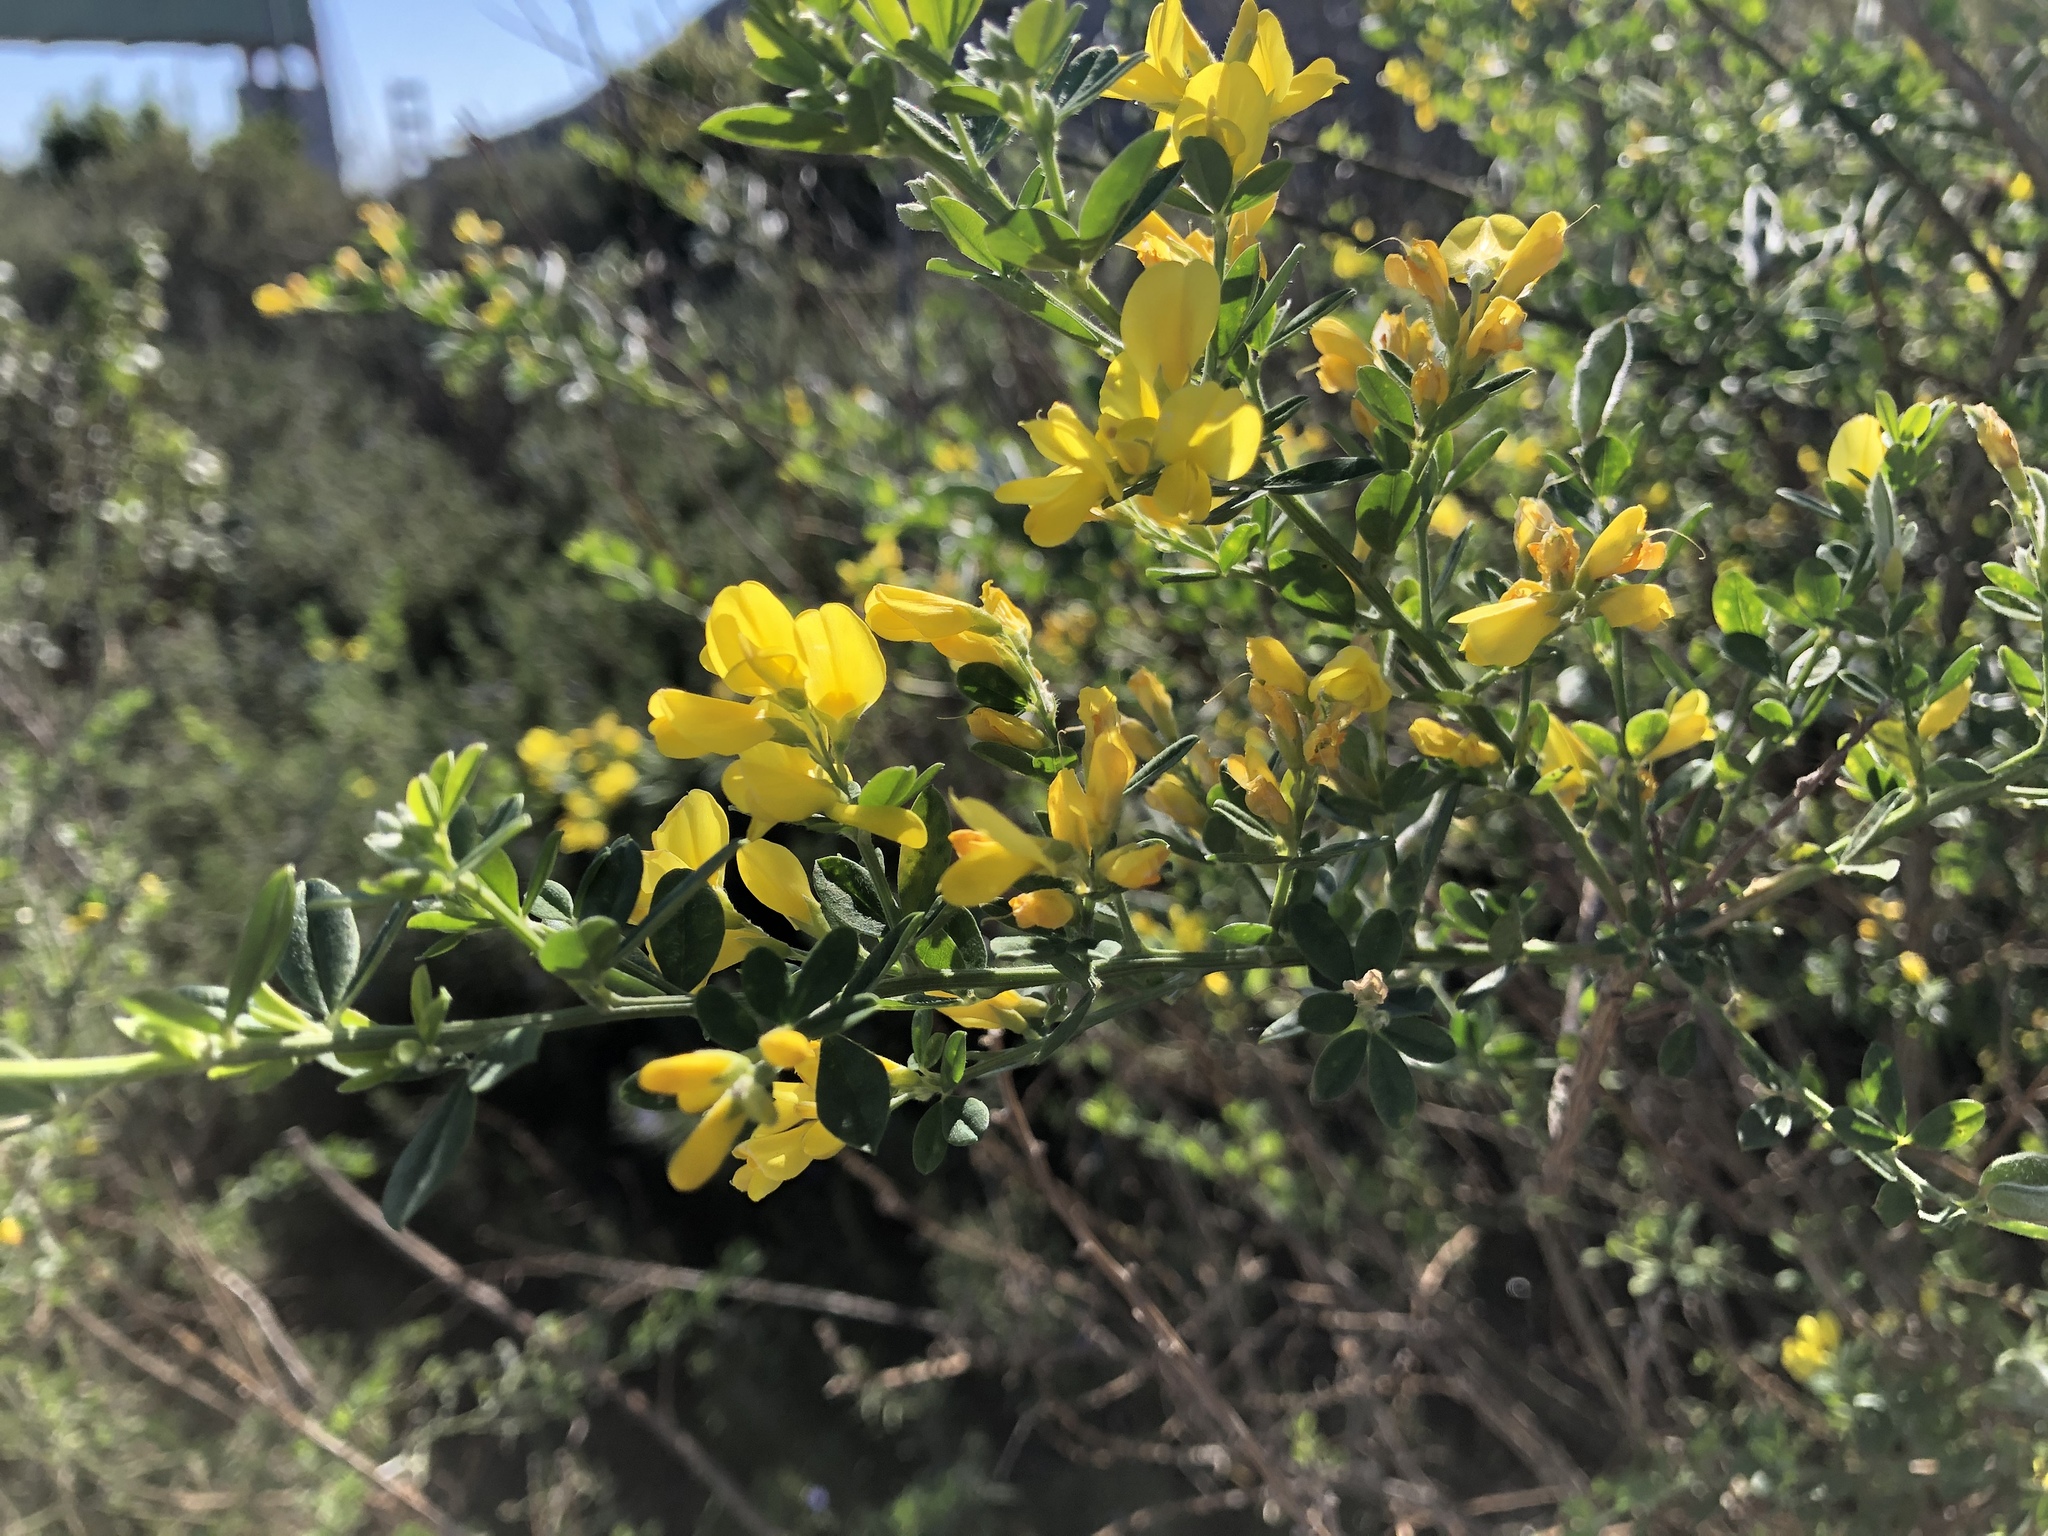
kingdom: Plantae
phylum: Tracheophyta
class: Magnoliopsida
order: Fabales
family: Fabaceae
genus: Genista
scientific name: Genista monspessulana
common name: Montpellier broom
